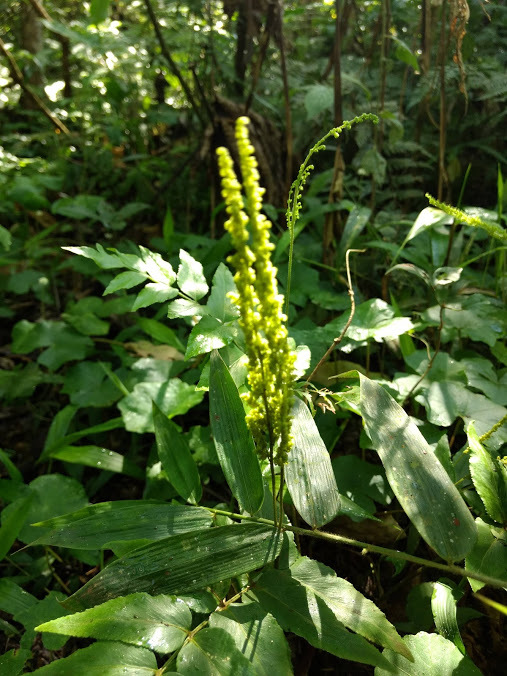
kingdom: Plantae
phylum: Tracheophyta
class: Polypodiopsida
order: Schizaeales
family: Anemiaceae
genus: Anemia
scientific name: Anemia phyllitidis
